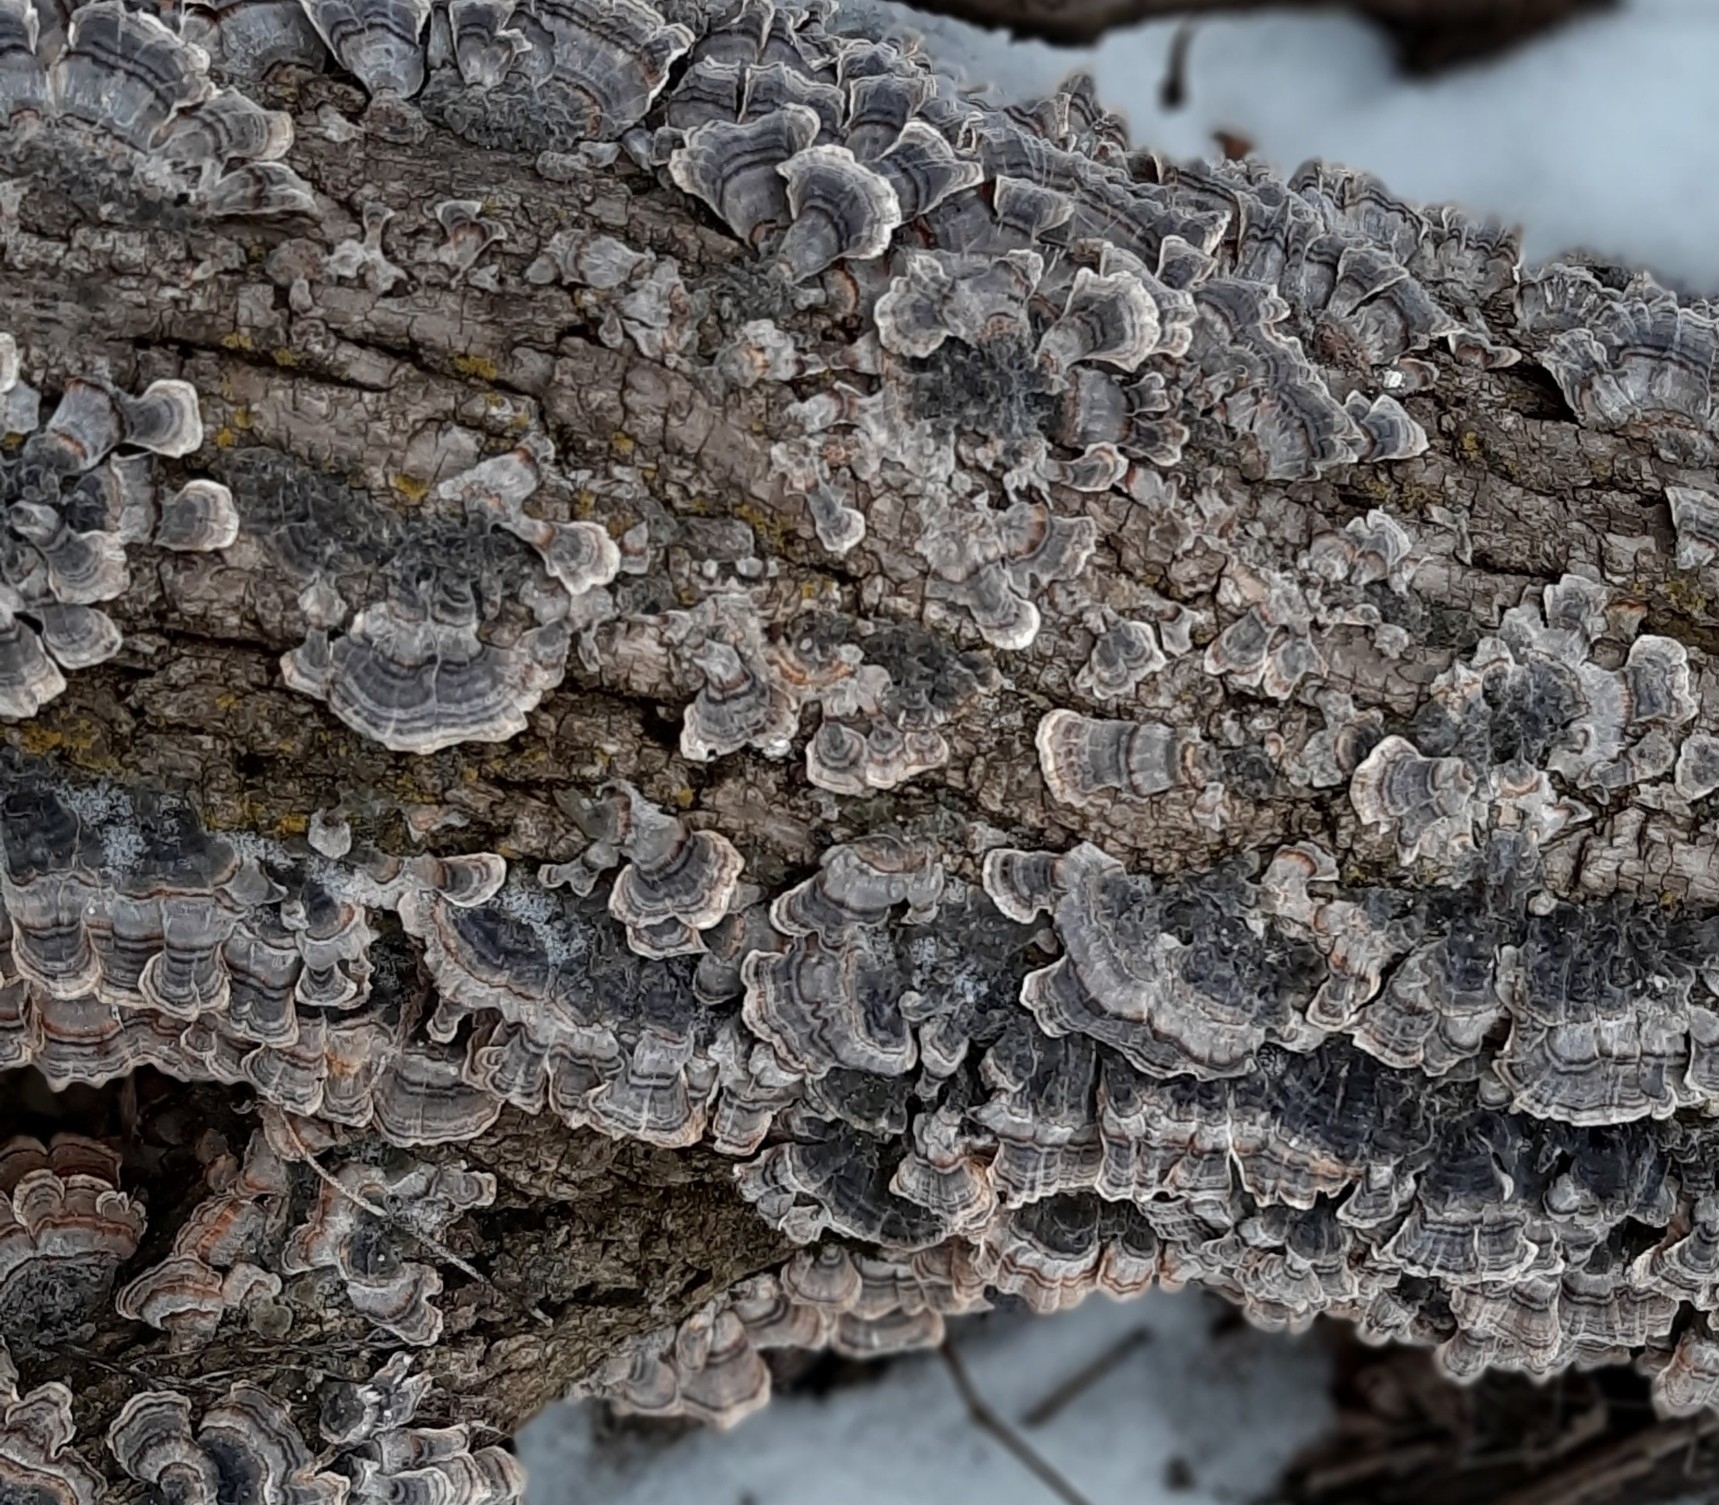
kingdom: Fungi
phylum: Basidiomycota
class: Agaricomycetes
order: Polyporales
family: Polyporaceae
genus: Trametes
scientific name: Trametes versicolor
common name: Turkeytail
